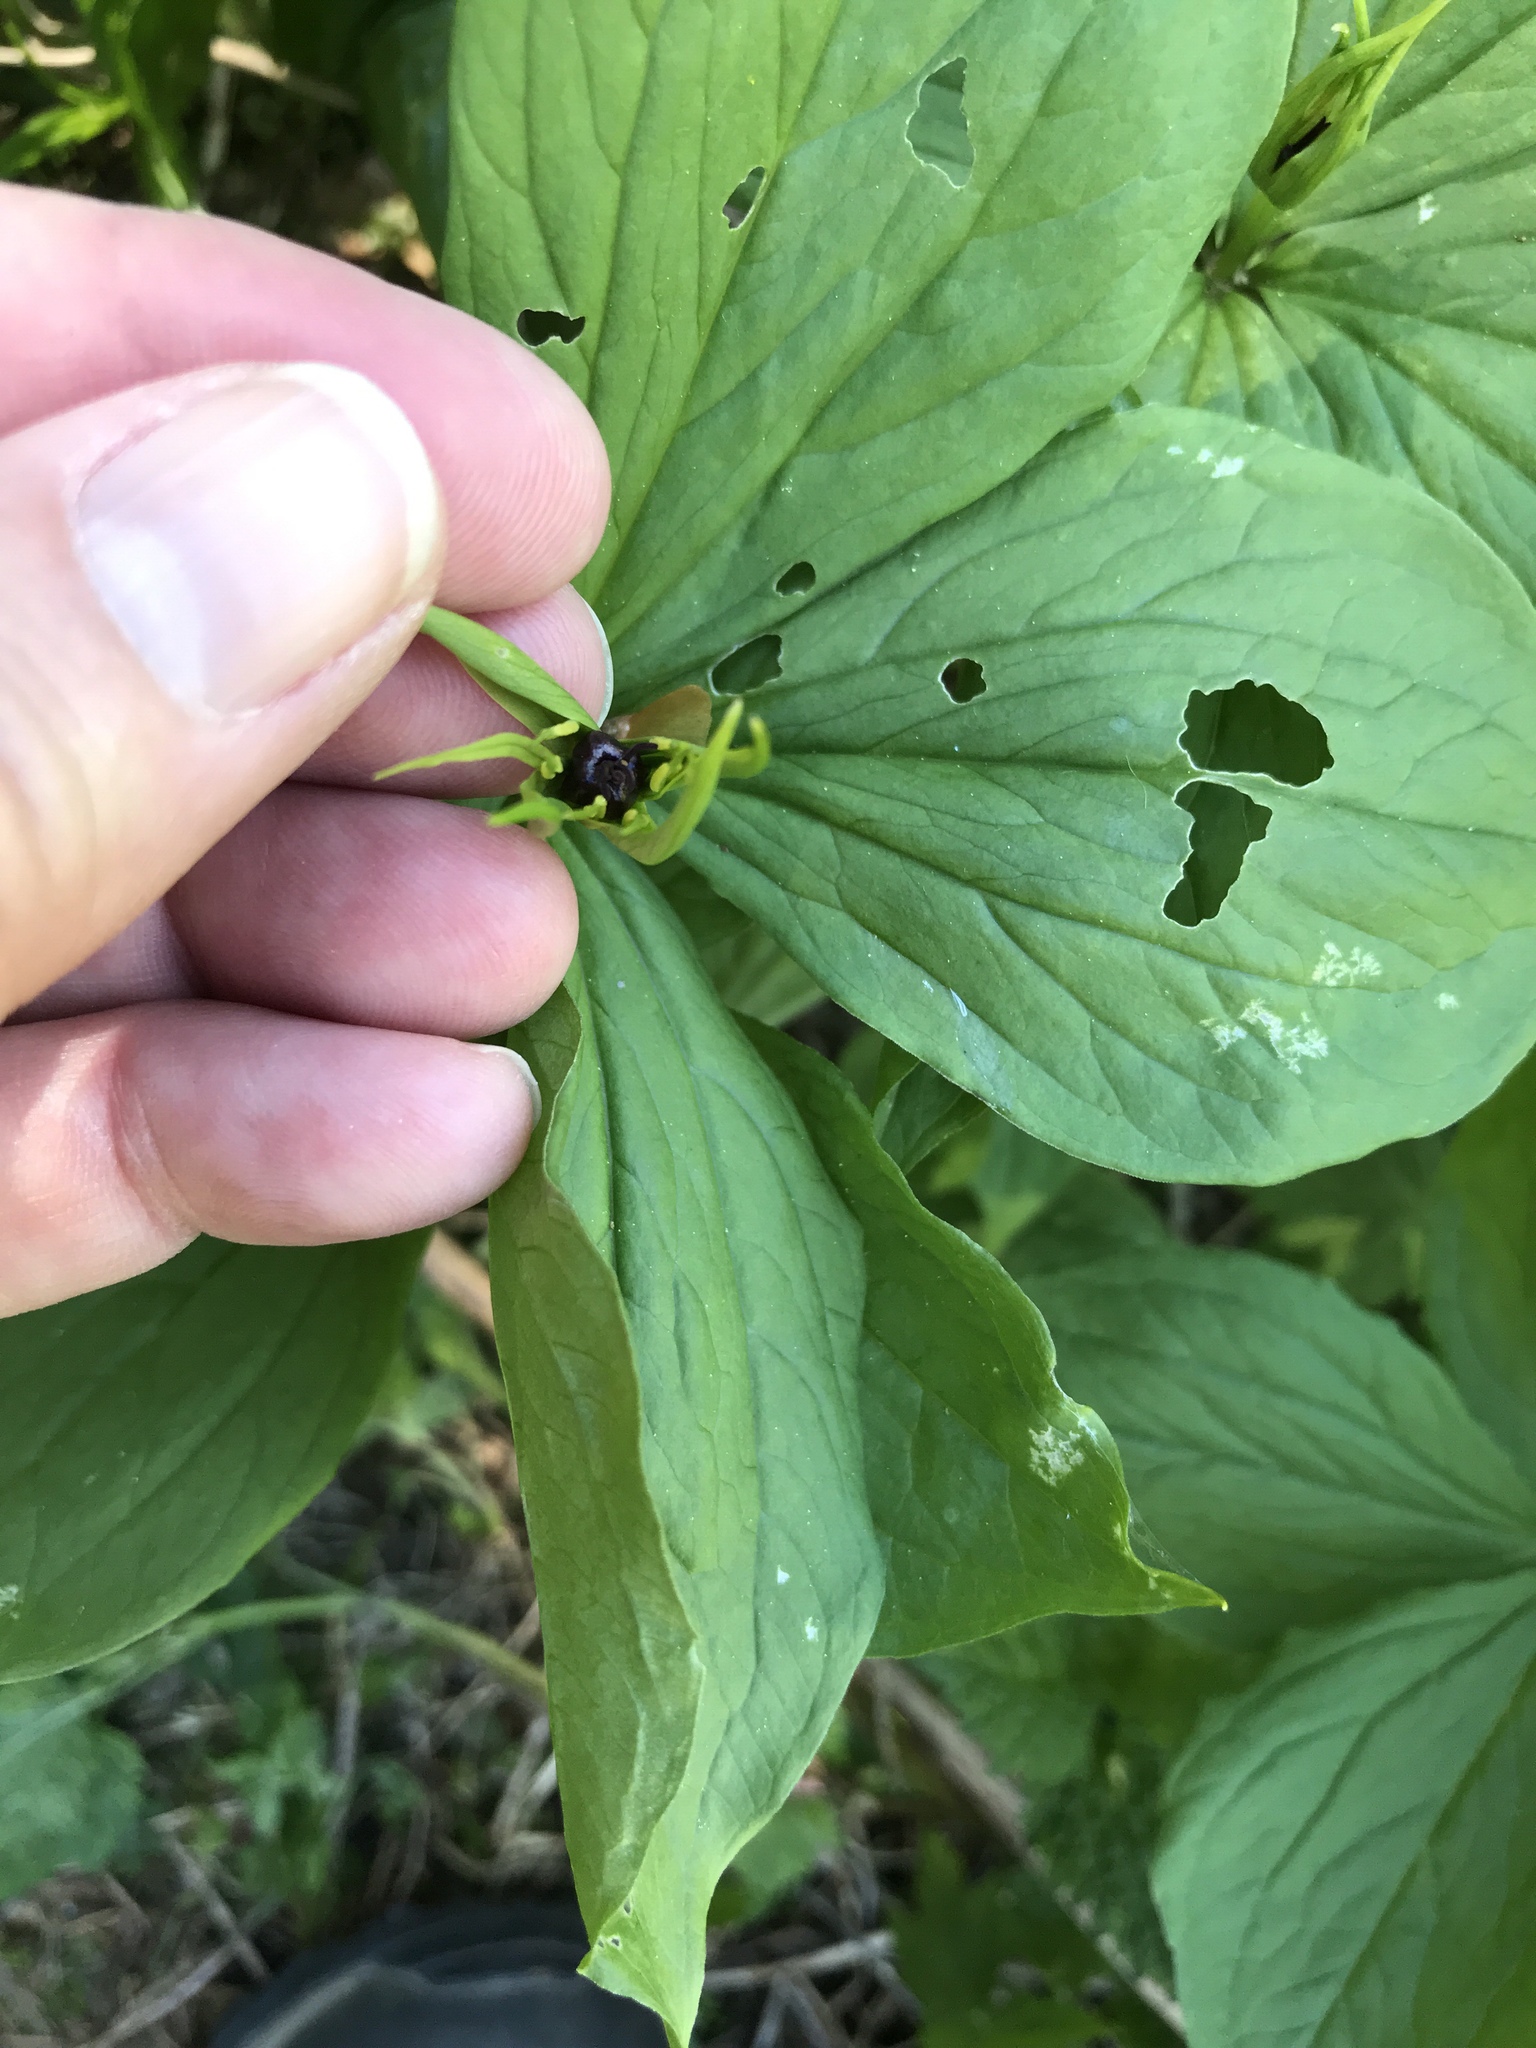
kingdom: Plantae
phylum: Tracheophyta
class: Liliopsida
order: Liliales
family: Melanthiaceae
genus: Paris
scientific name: Paris quadrifolia
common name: Herb-paris
